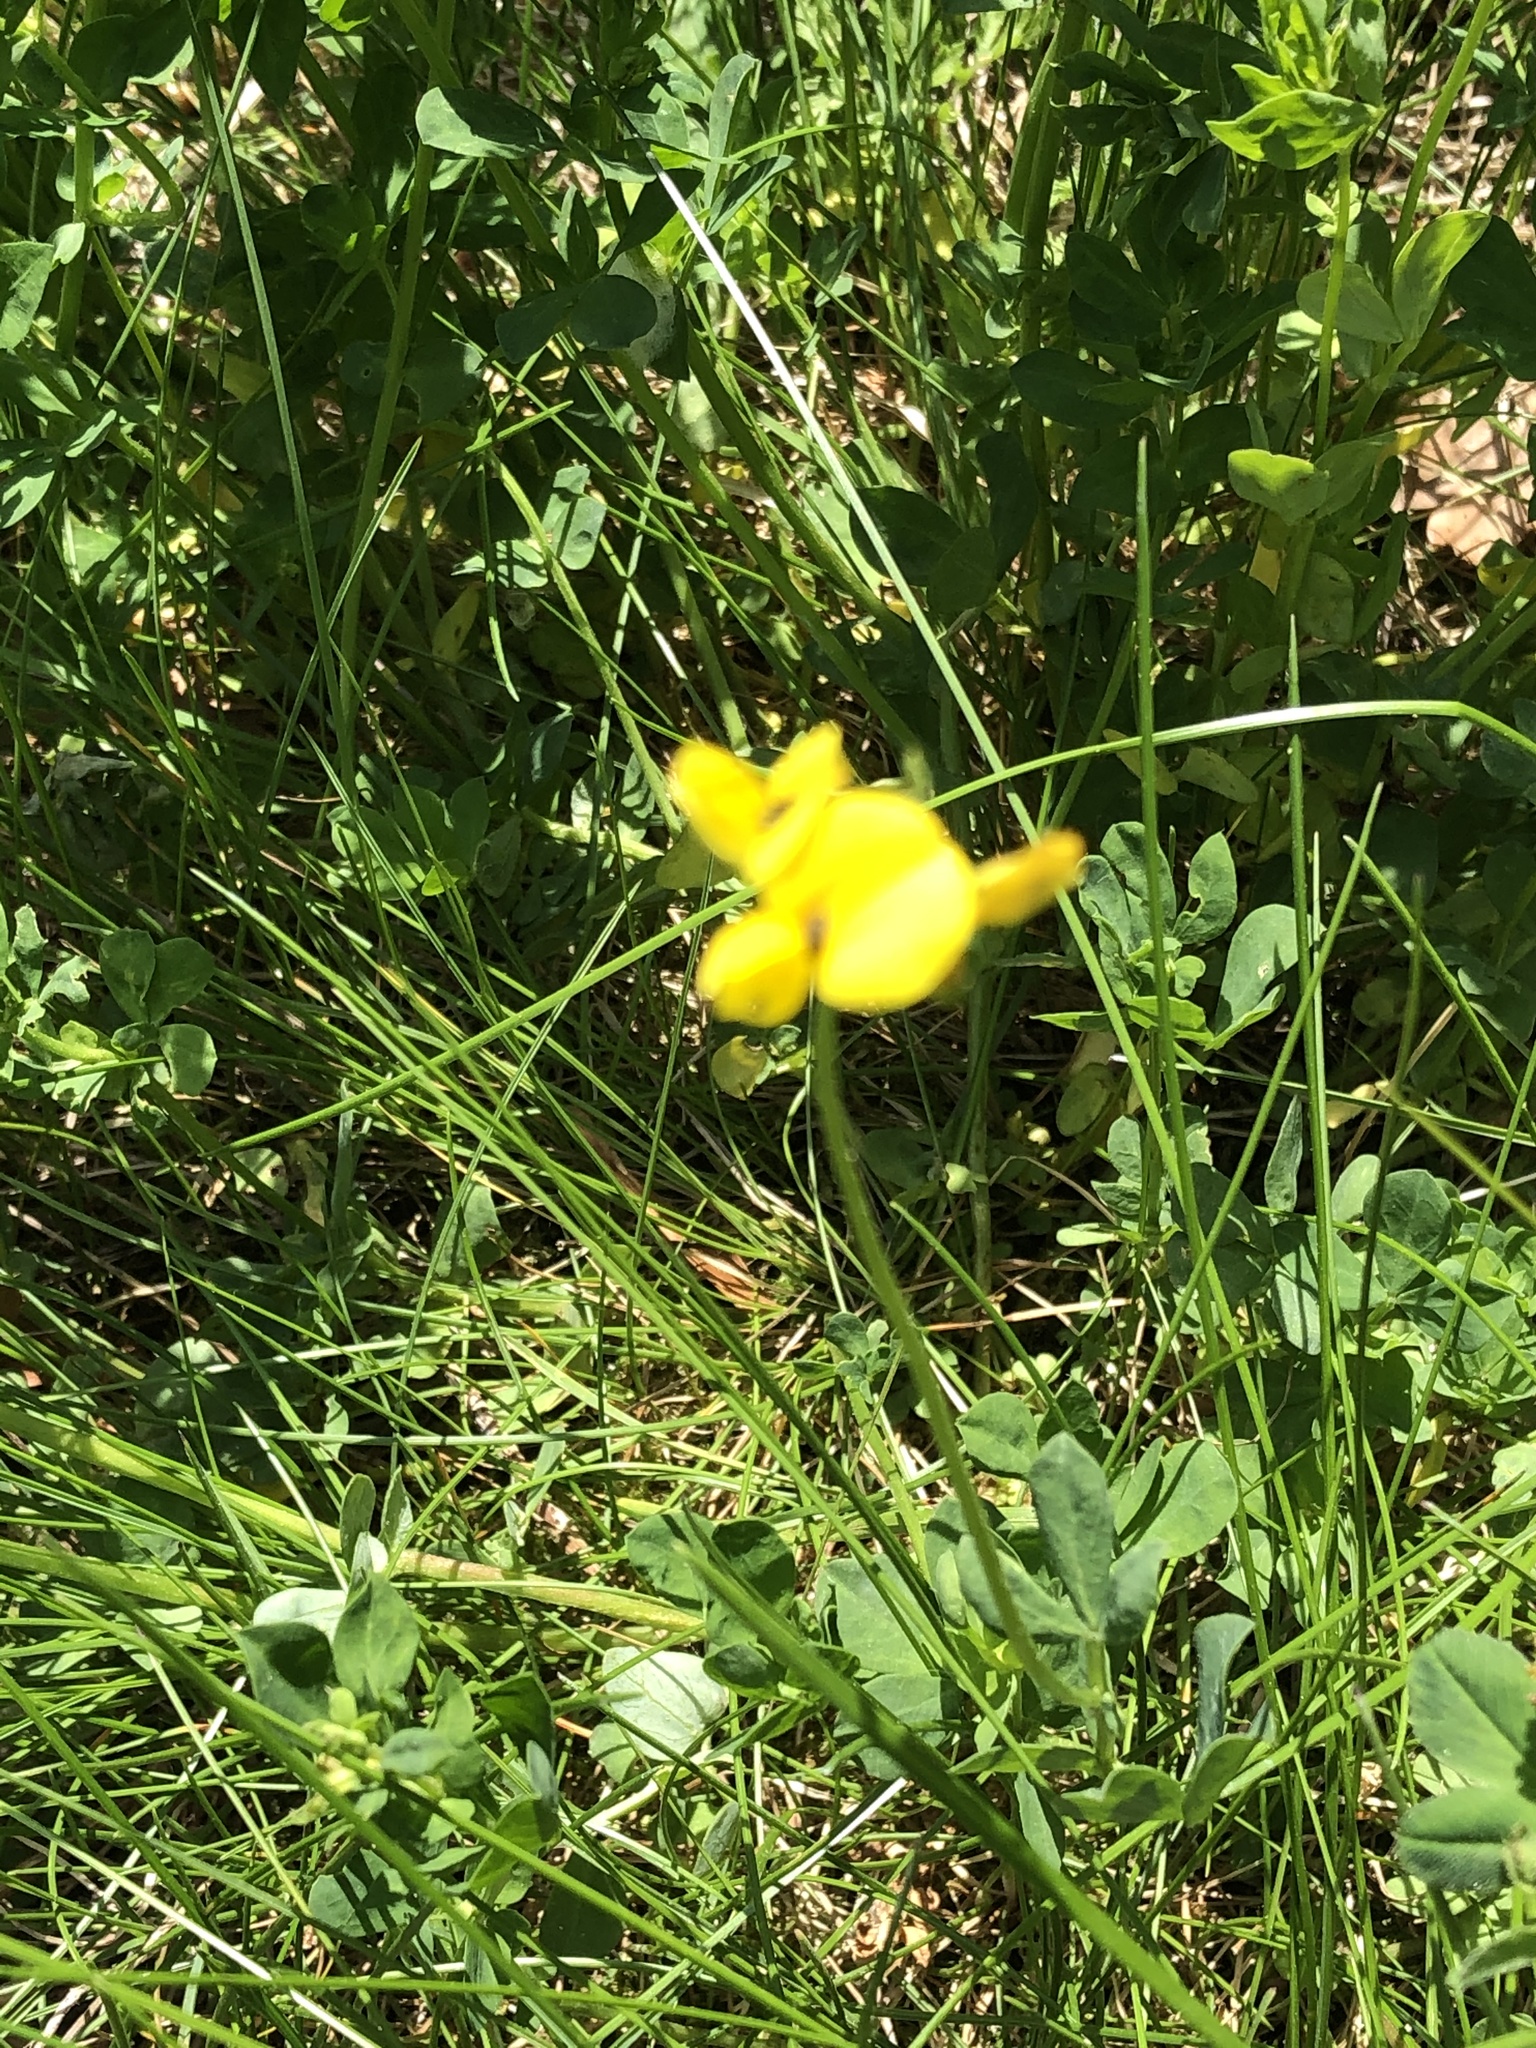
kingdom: Plantae
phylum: Tracheophyta
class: Magnoliopsida
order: Fabales
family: Fabaceae
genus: Lotus
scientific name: Lotus corniculatus
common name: Common bird's-foot-trefoil
